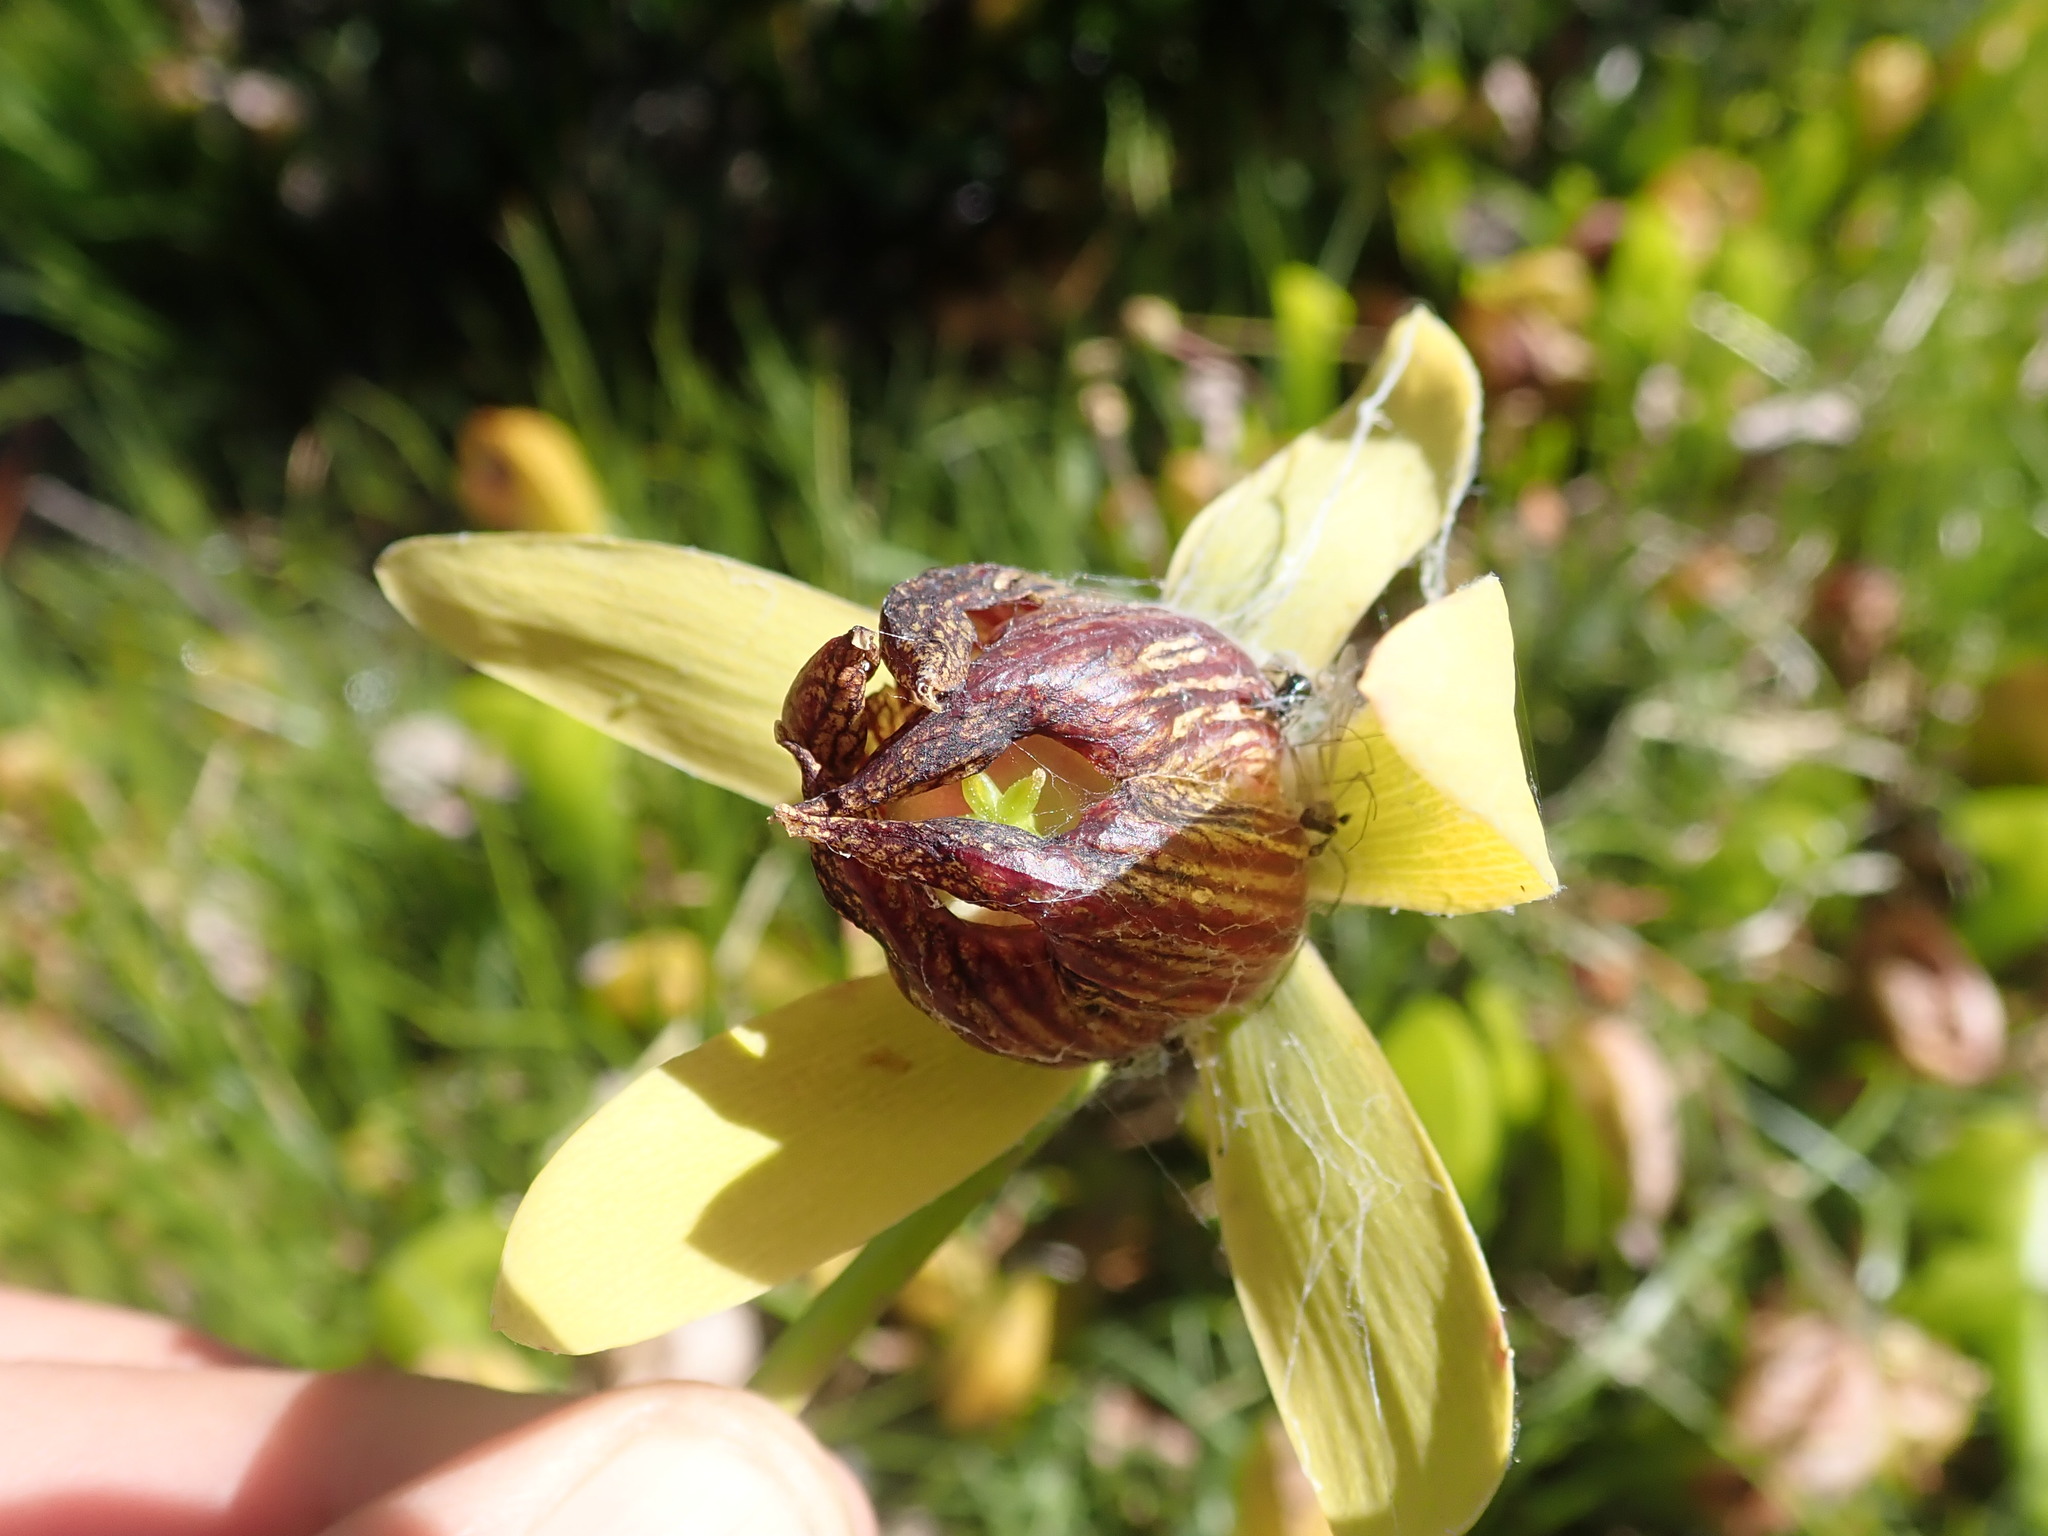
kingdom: Plantae
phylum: Tracheophyta
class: Magnoliopsida
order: Ericales
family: Sarraceniaceae
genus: Darlingtonia
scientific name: Darlingtonia californica
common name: California pitcher plant
